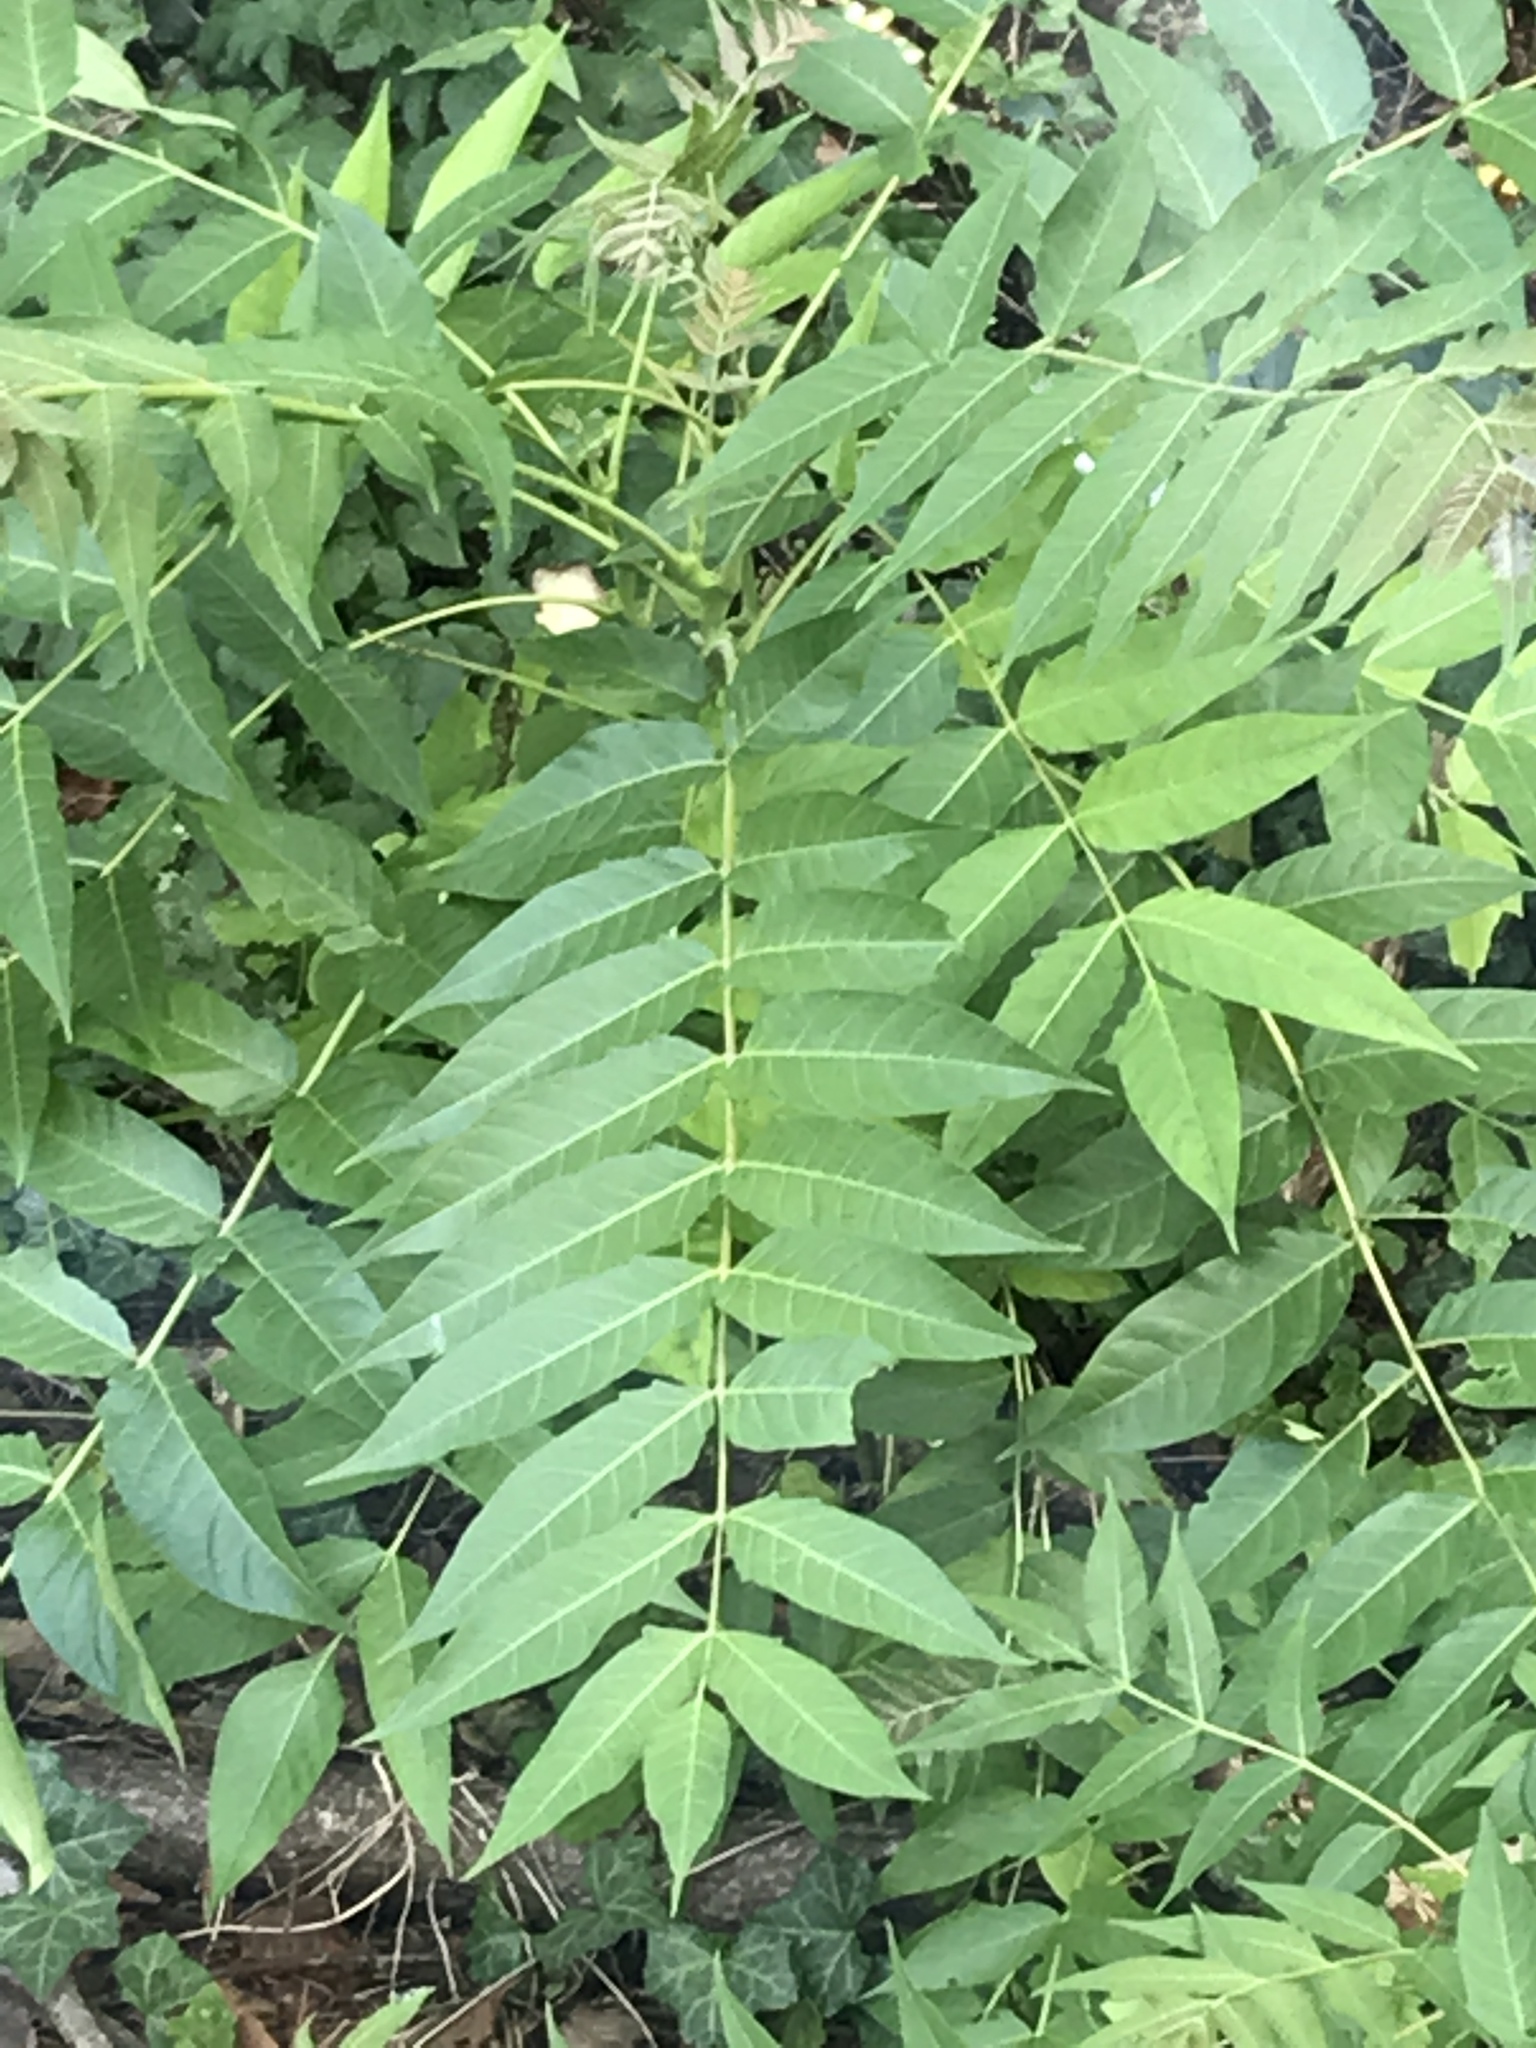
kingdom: Plantae
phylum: Tracheophyta
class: Magnoliopsida
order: Sapindales
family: Simaroubaceae
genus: Ailanthus
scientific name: Ailanthus altissima
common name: Tree-of-heaven
